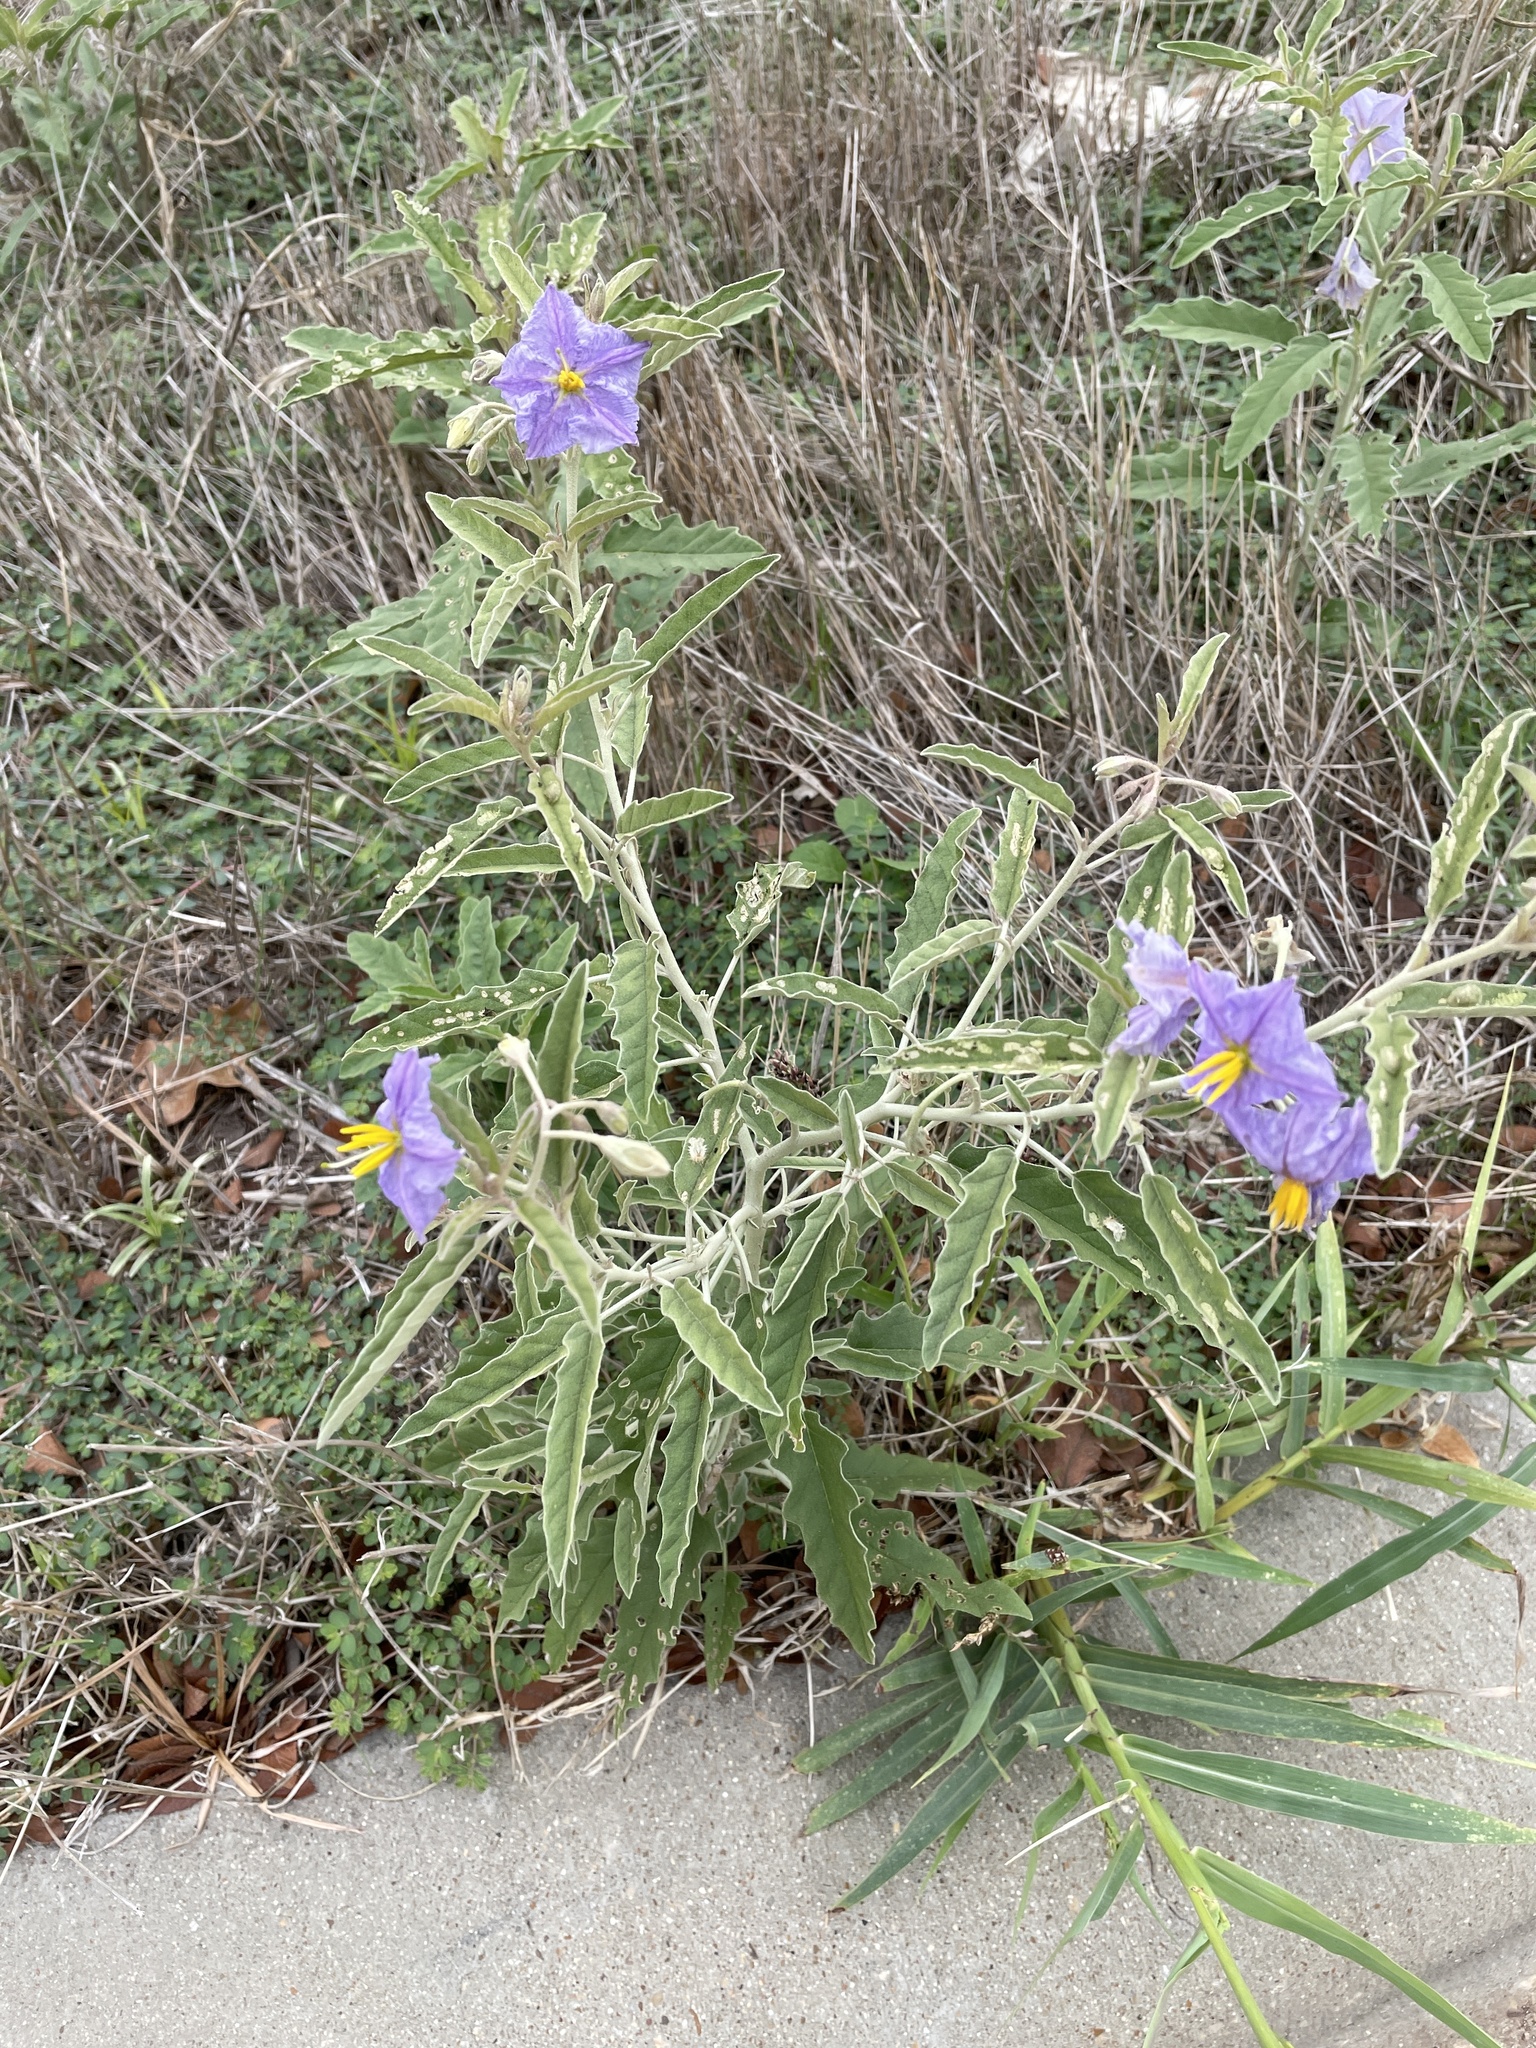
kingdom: Plantae
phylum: Tracheophyta
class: Magnoliopsida
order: Solanales
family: Solanaceae
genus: Solanum
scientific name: Solanum elaeagnifolium
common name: Silverleaf nightshade
